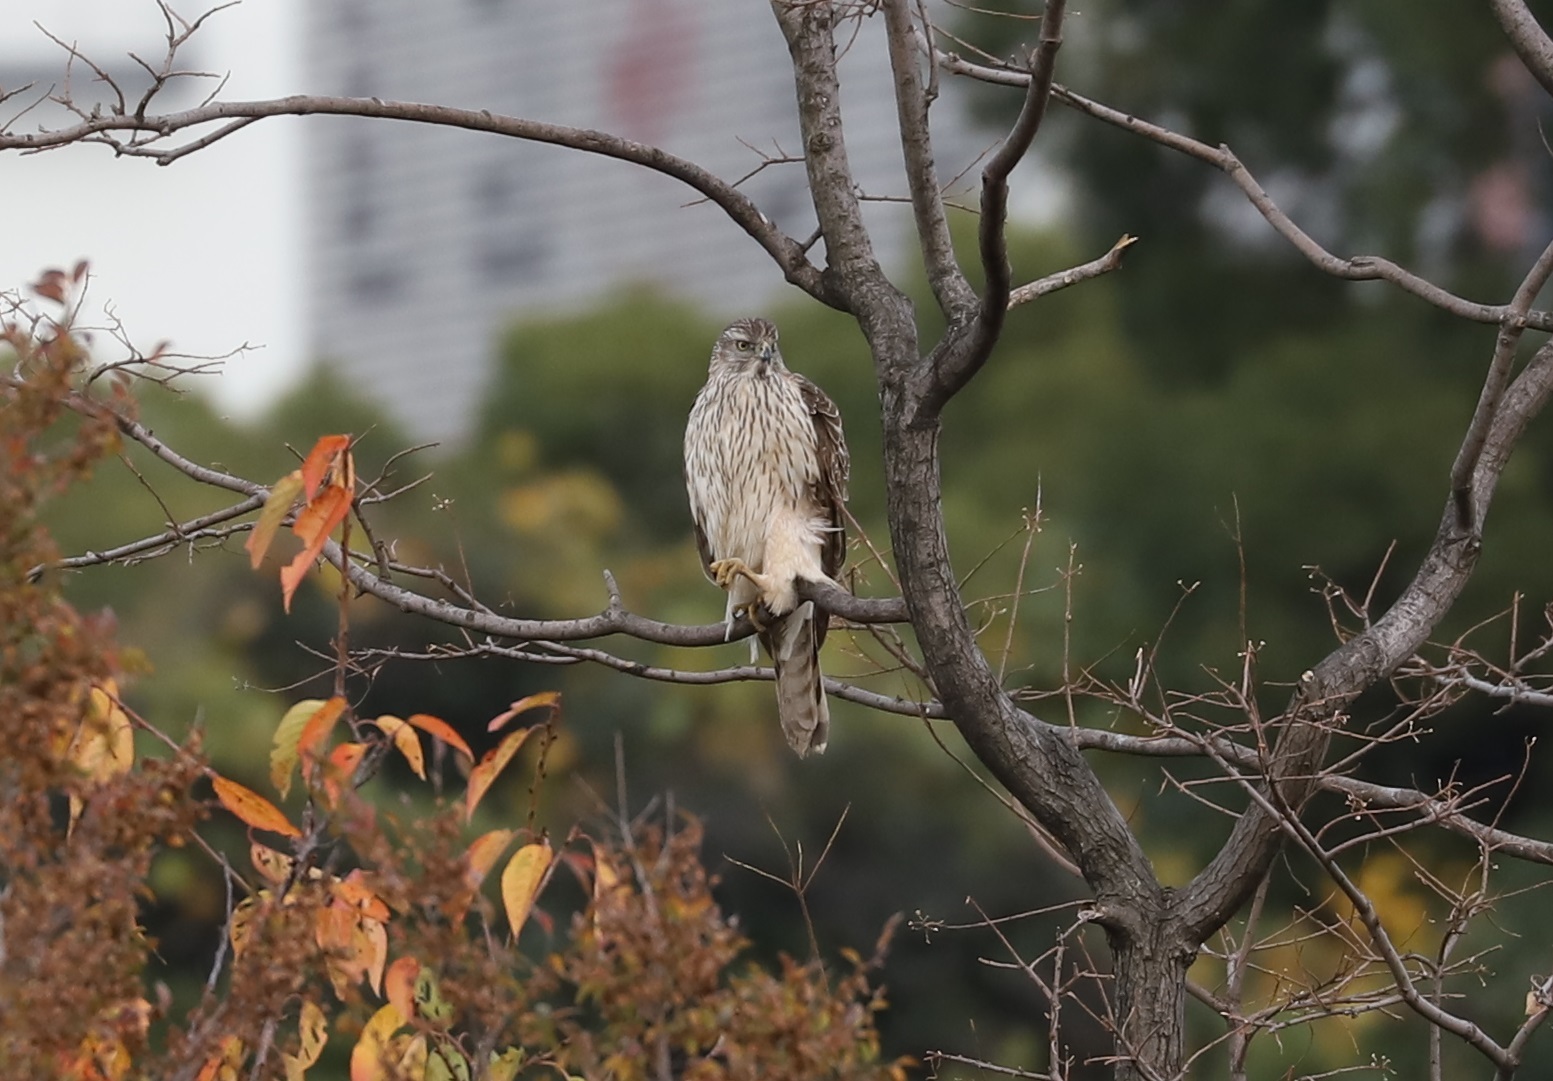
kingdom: Animalia
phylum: Chordata
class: Aves
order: Accipitriformes
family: Accipitridae
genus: Accipiter
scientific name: Accipiter gentilis
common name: Northern goshawk
